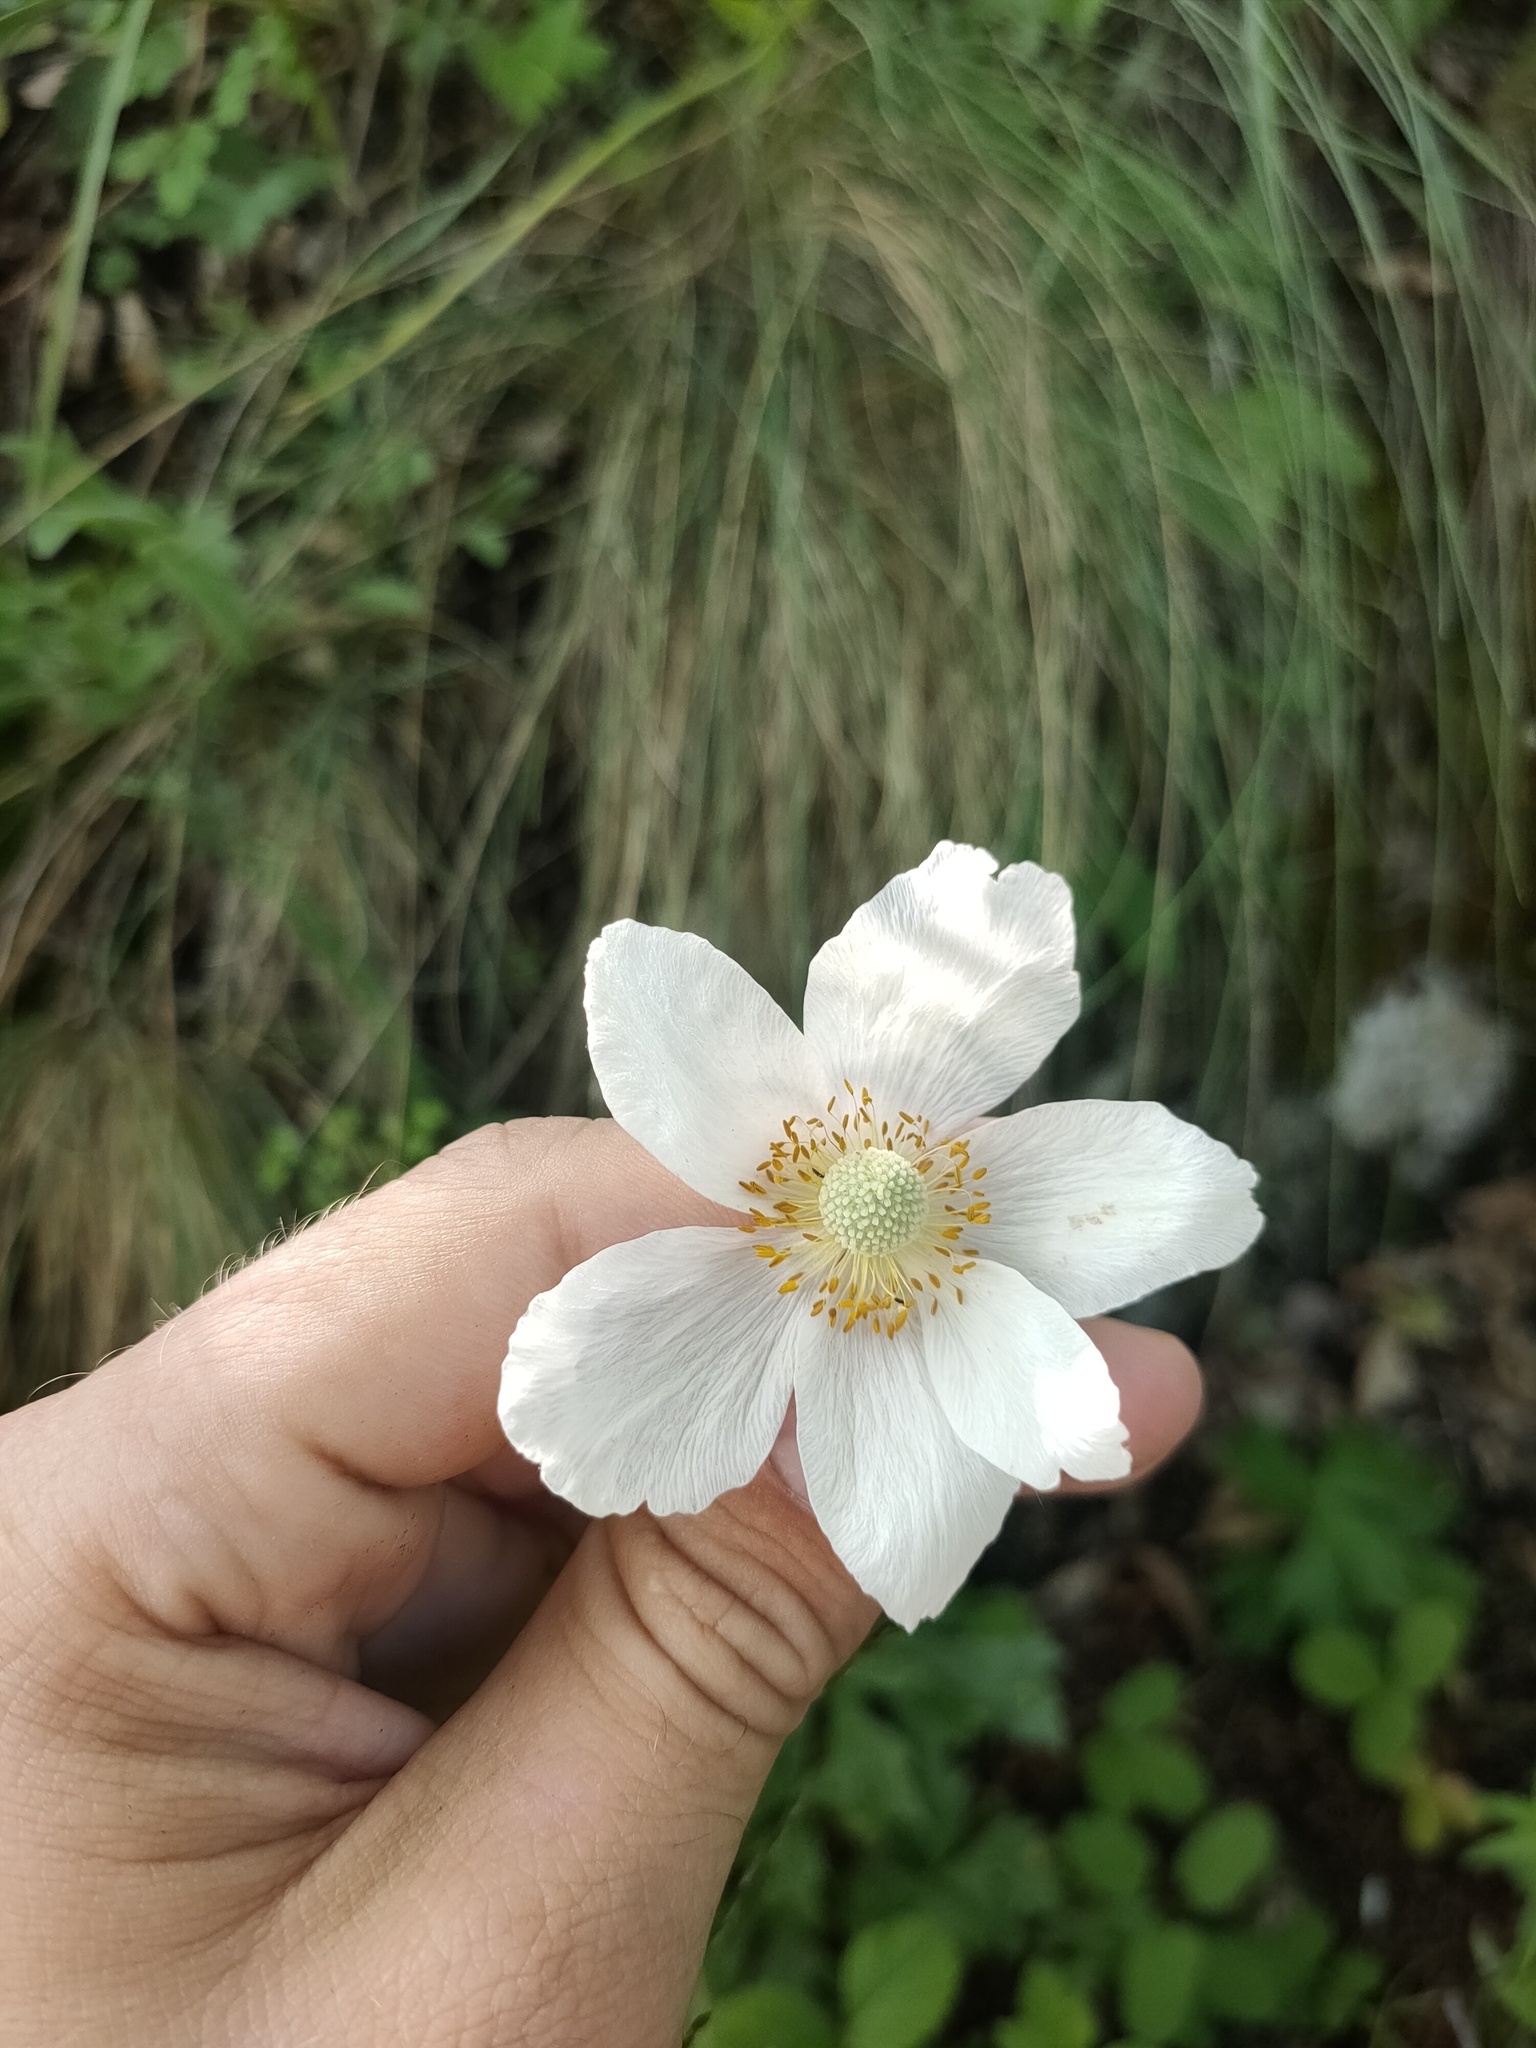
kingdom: Plantae
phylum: Tracheophyta
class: Magnoliopsida
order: Ranunculales
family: Ranunculaceae
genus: Anemone
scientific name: Anemone sylvestris
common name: Snowdrop anemone
